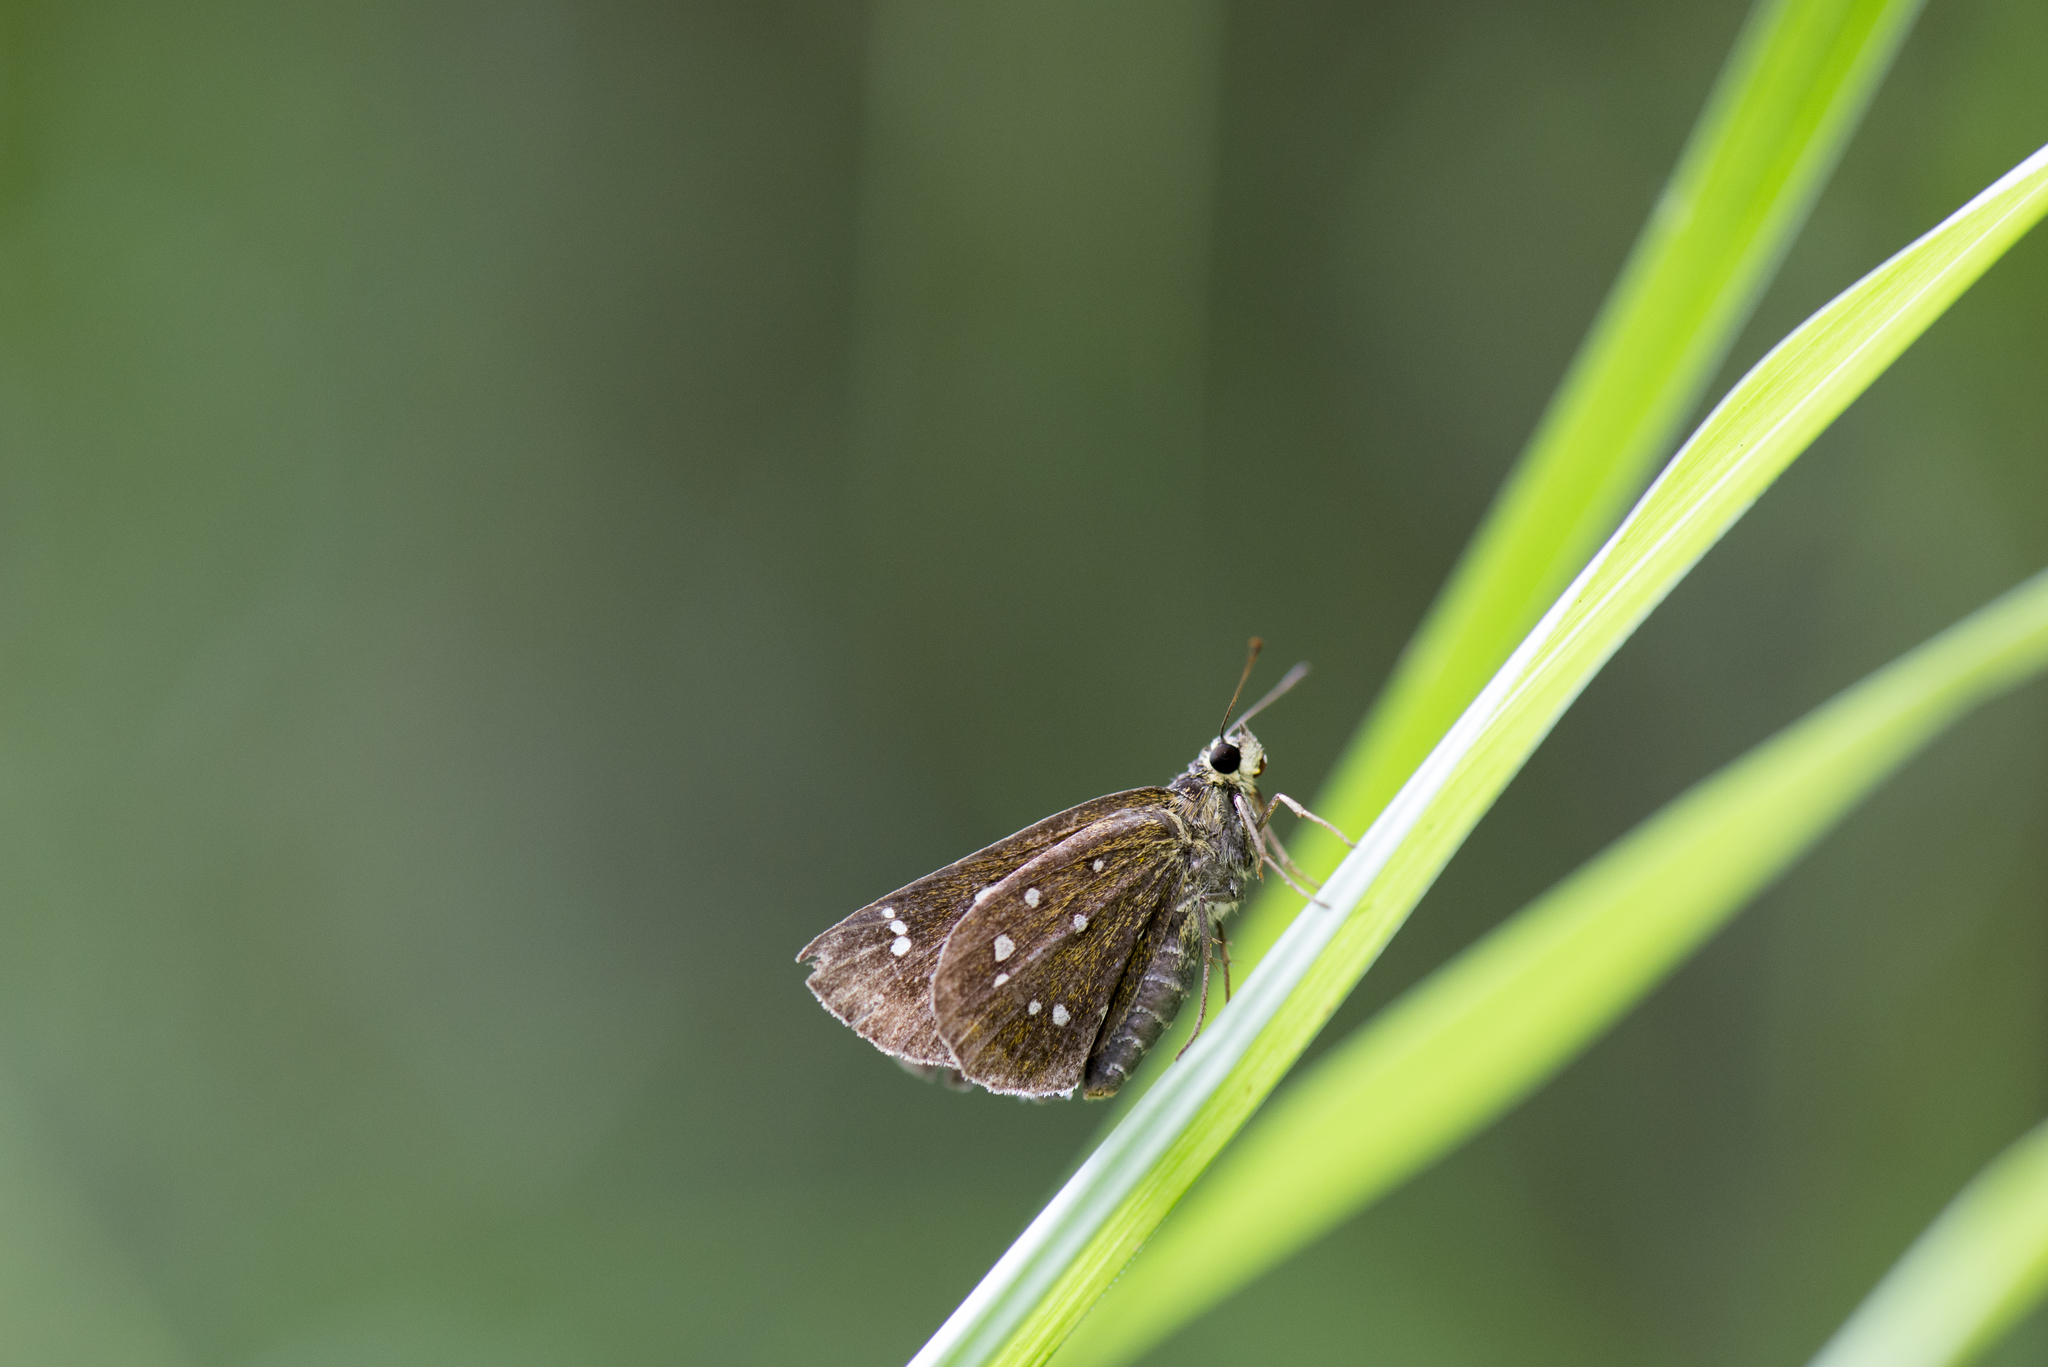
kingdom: Animalia
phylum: Arthropoda
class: Insecta
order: Lepidoptera
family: Hesperiidae
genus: Isoteinon
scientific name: Isoteinon lamprospilus
